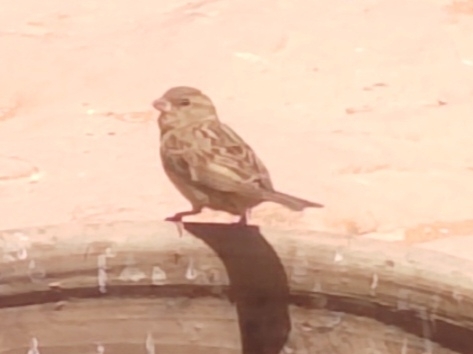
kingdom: Animalia
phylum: Chordata
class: Aves
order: Passeriformes
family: Passeridae
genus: Passer
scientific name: Passer domesticus
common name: House sparrow
